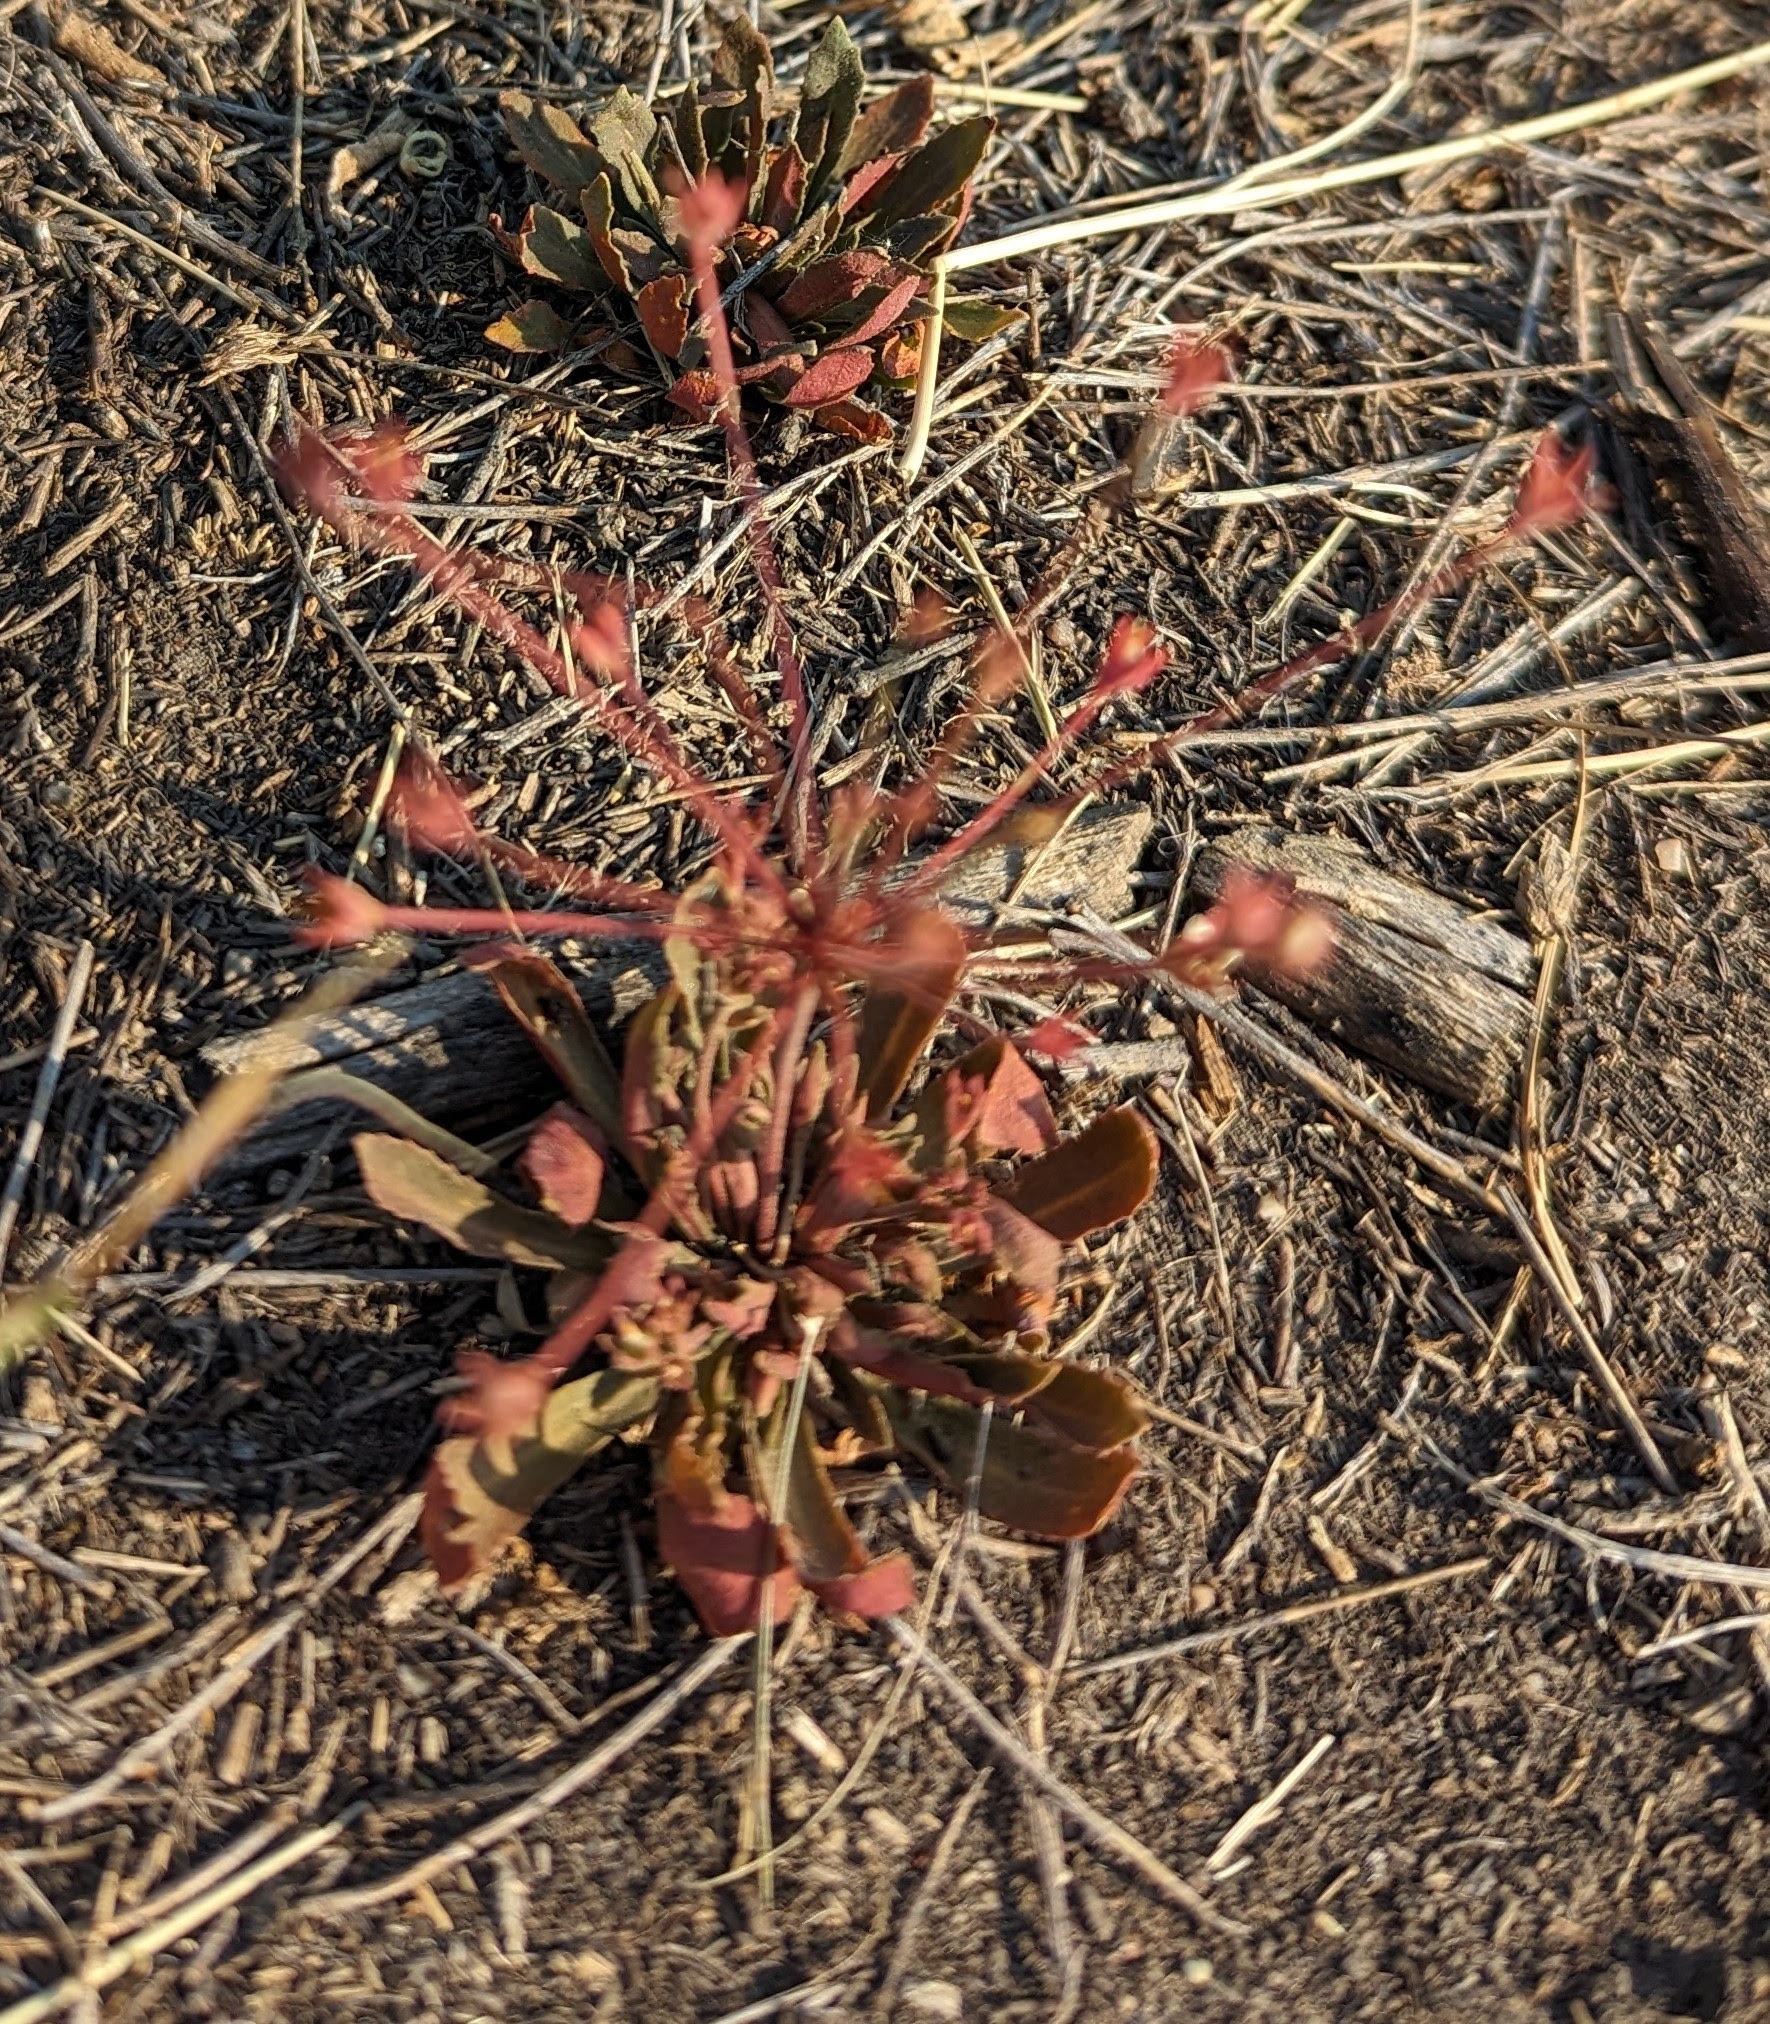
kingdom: Plantae
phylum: Tracheophyta
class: Magnoliopsida
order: Ericales
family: Primulaceae
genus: Androsace
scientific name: Androsace septentrionalis
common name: Hairy northern fairy-candelabra
